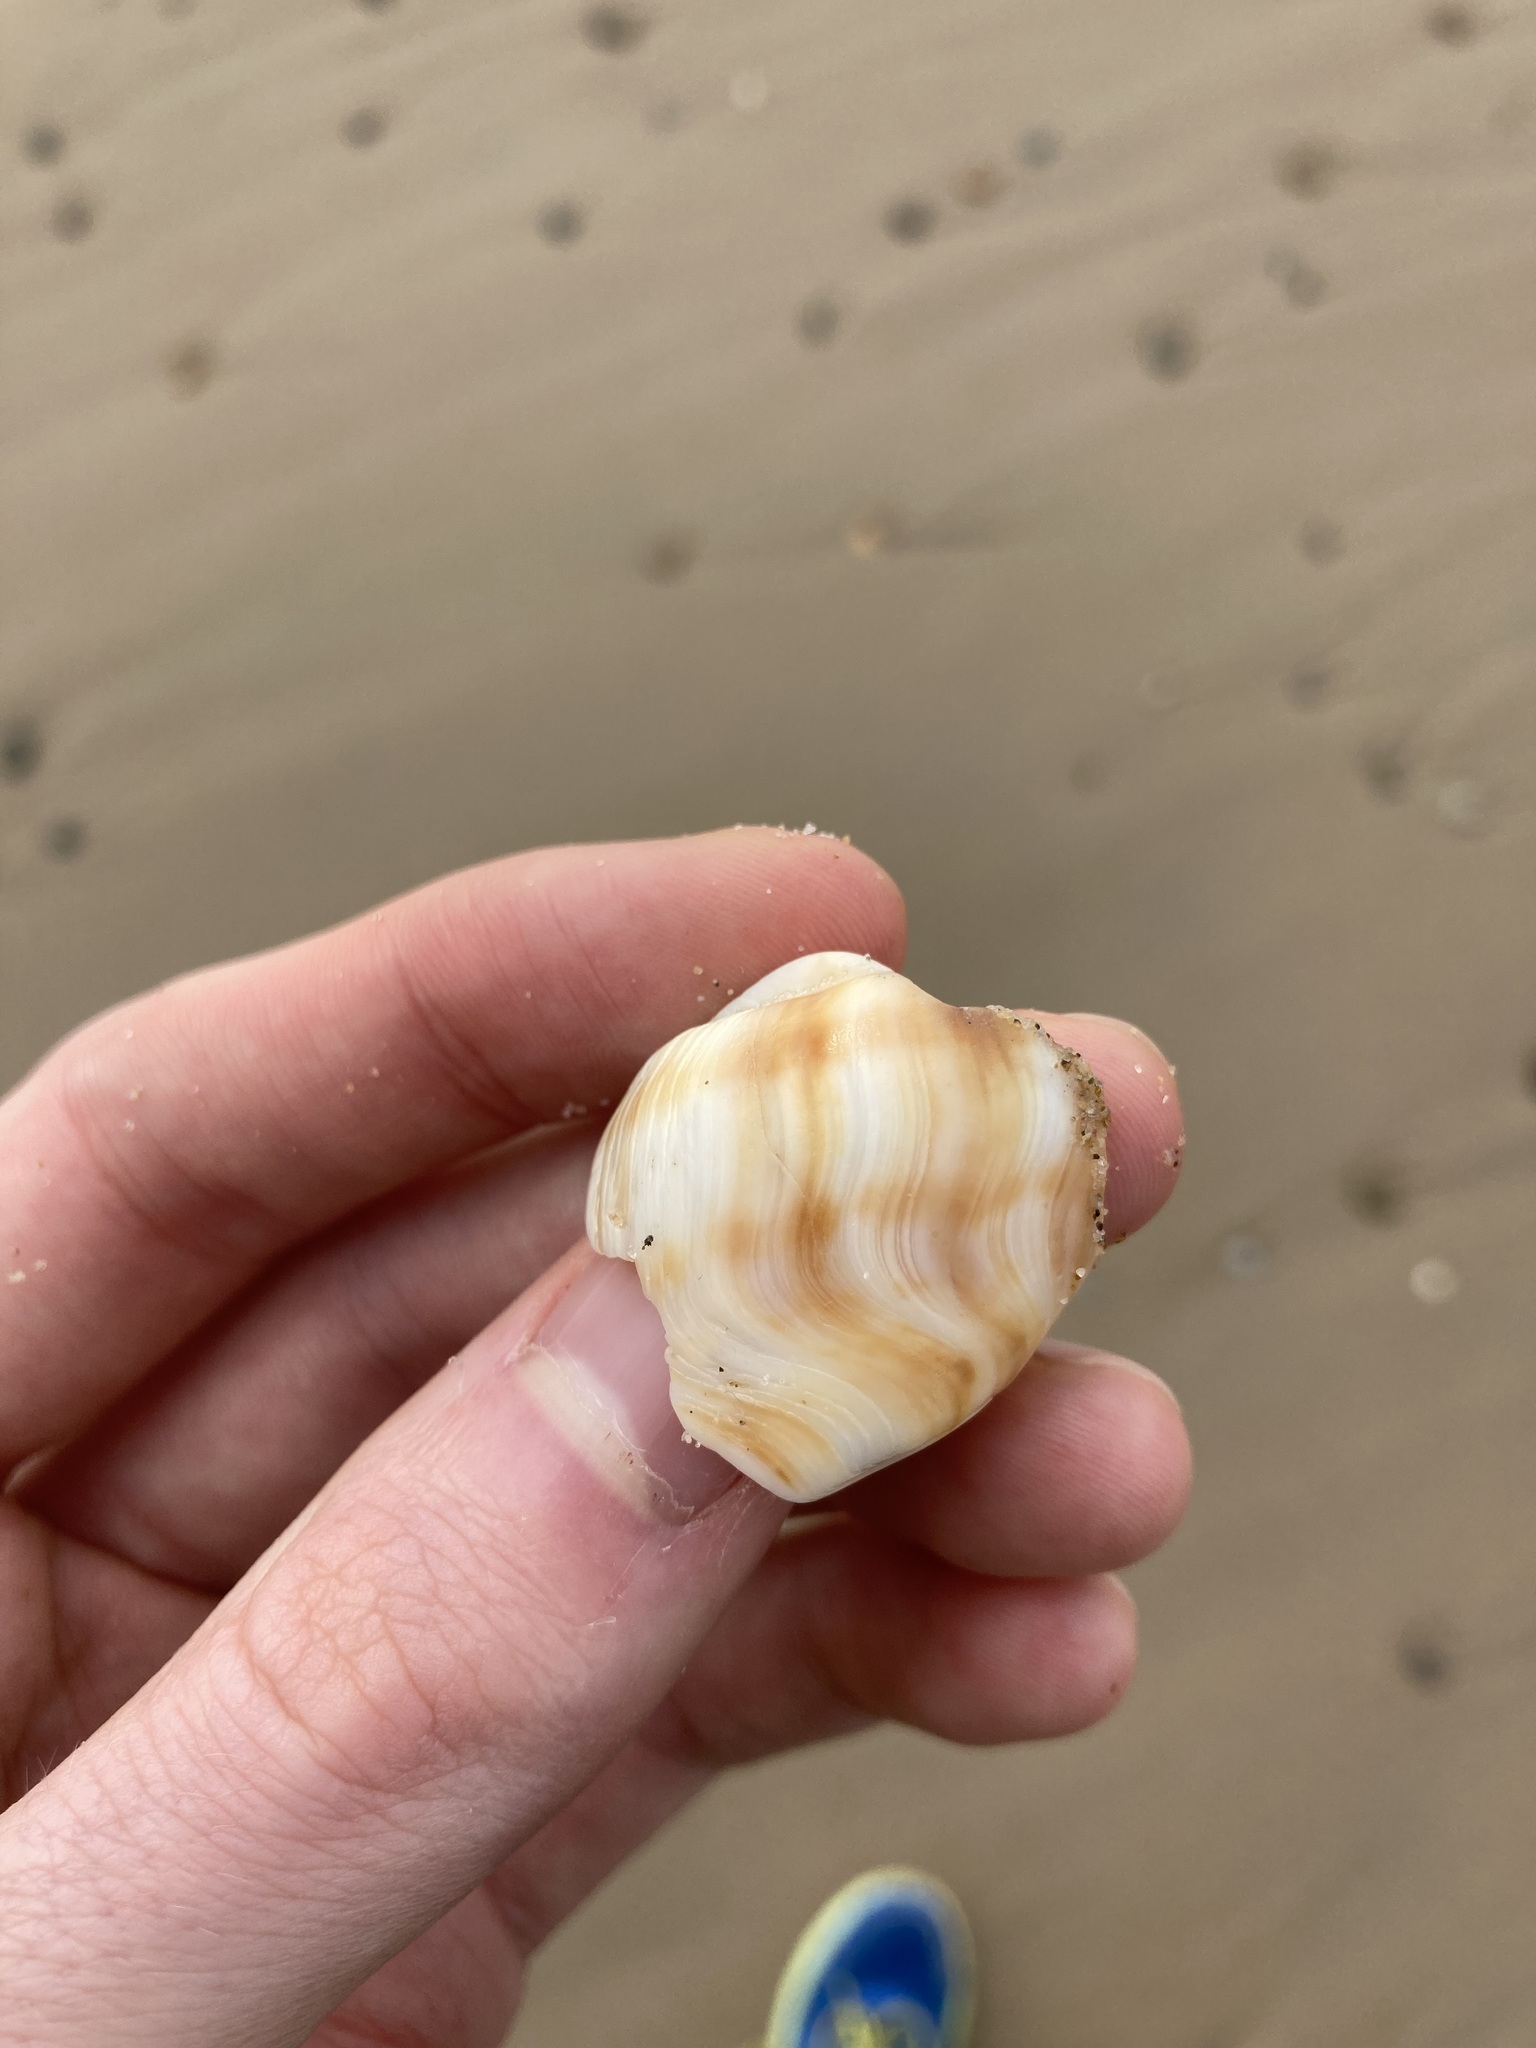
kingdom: Animalia
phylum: Mollusca
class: Gastropoda
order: Littorinimorpha
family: Struthiolariidae
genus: Tylospira
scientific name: Tylospira scutulata
